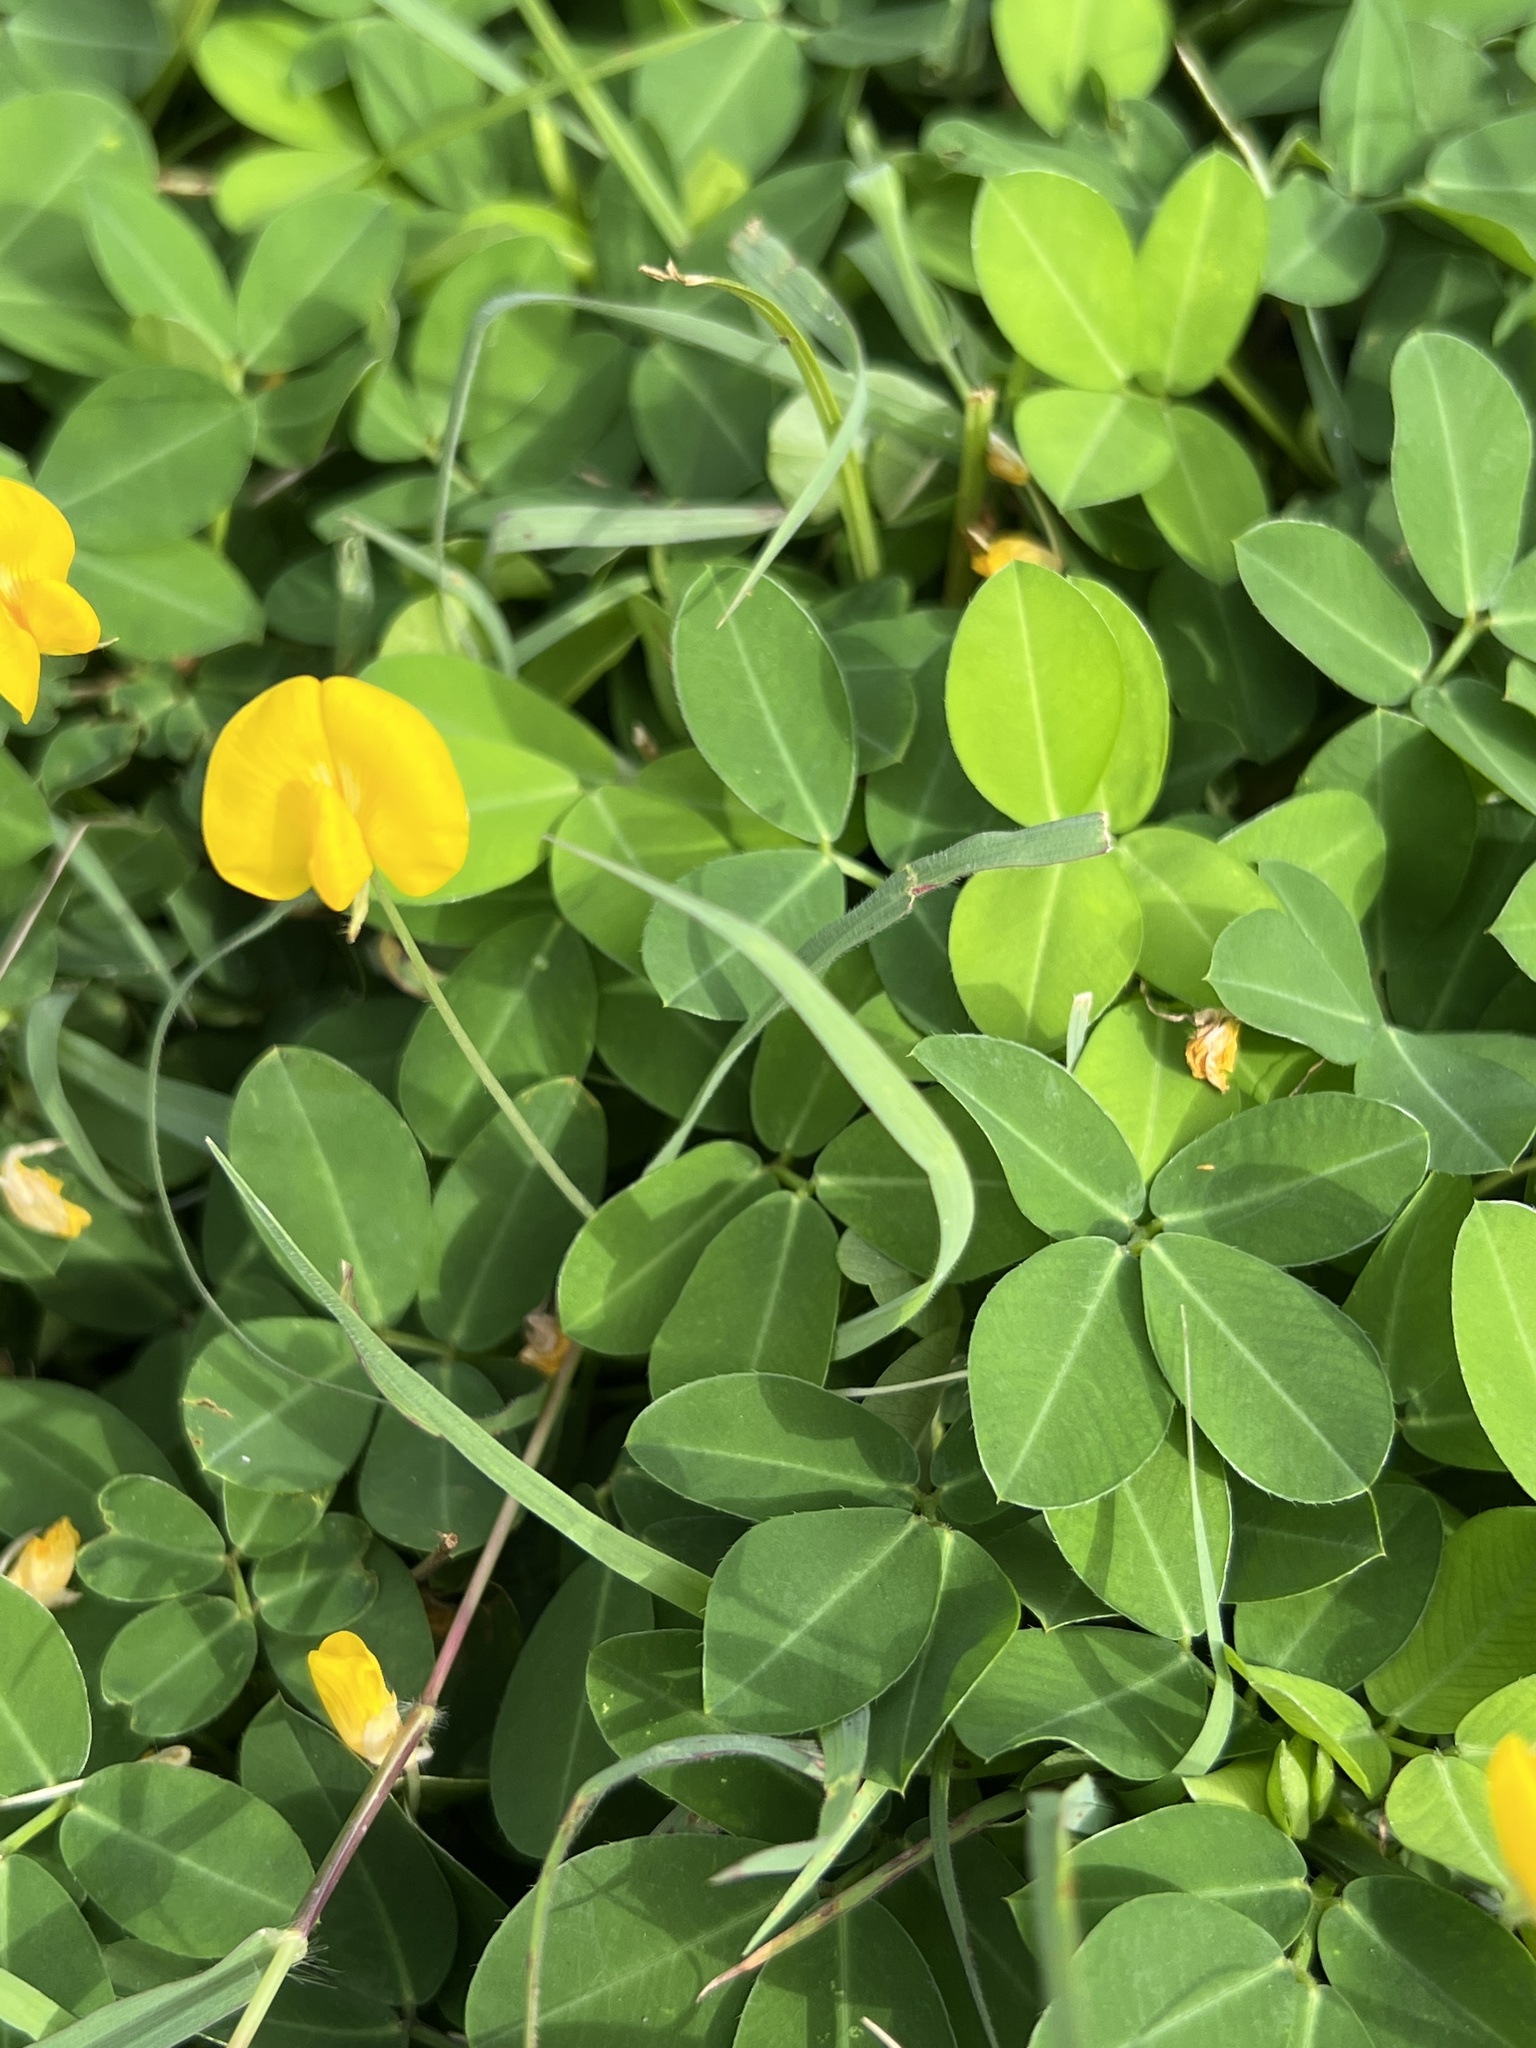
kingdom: Plantae
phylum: Tracheophyta
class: Magnoliopsida
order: Fabales
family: Fabaceae
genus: Arachis
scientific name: Arachis repens
